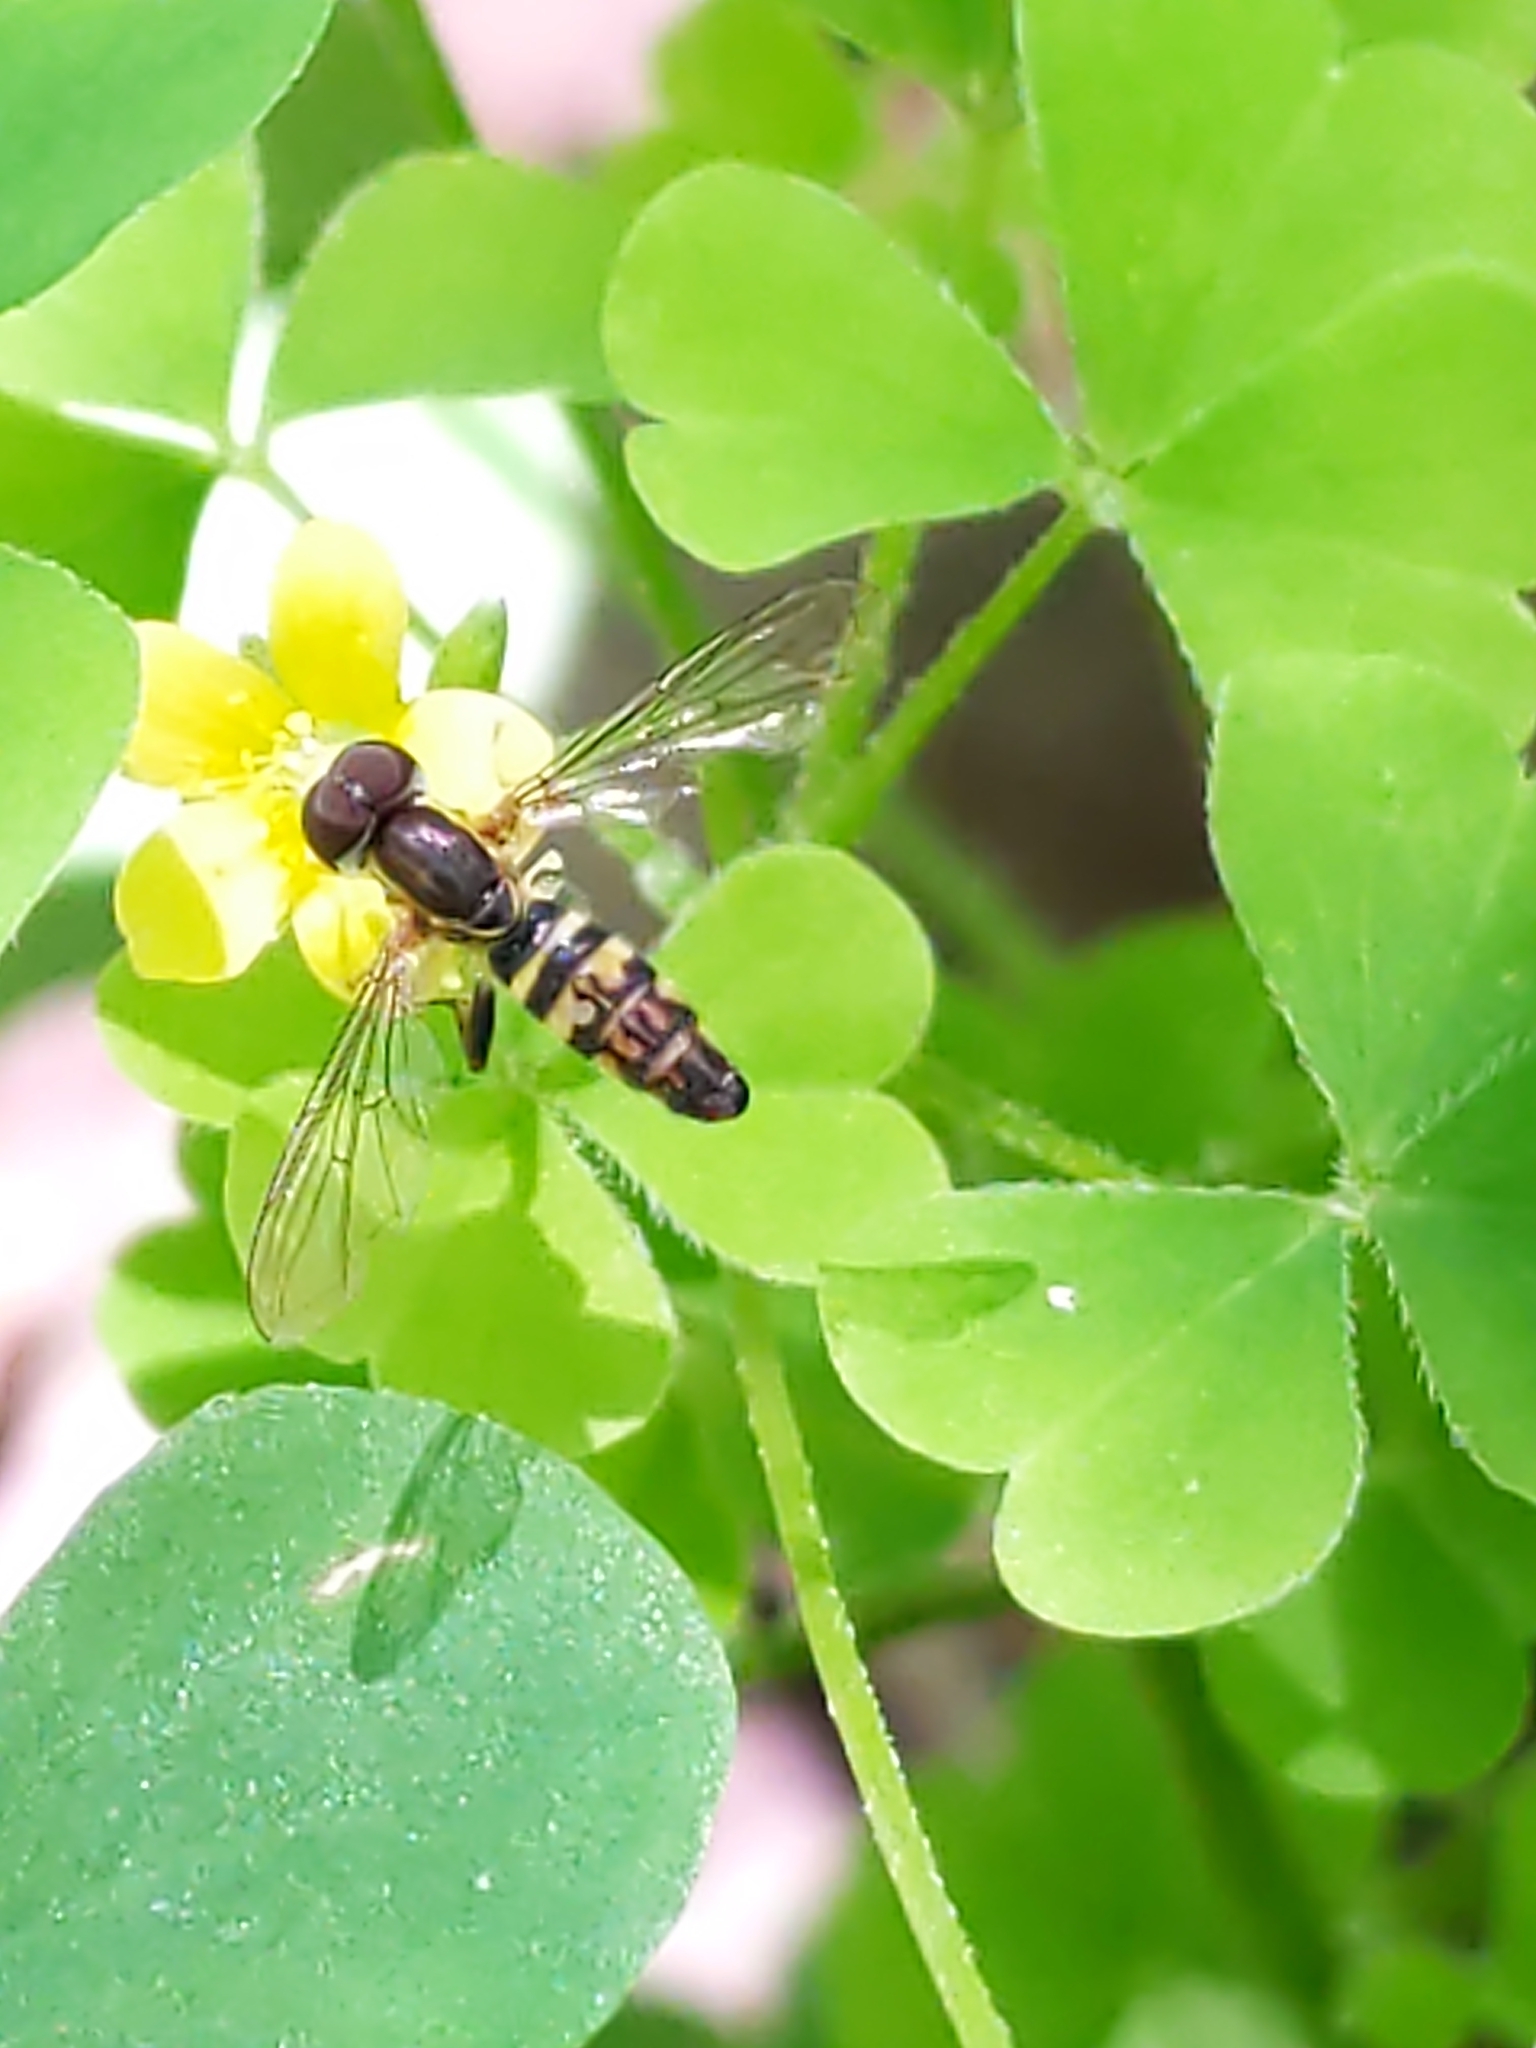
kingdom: Animalia
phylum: Arthropoda
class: Insecta
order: Diptera
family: Syrphidae
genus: Toxomerus
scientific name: Toxomerus geminatus
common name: Eastern calligrapher
